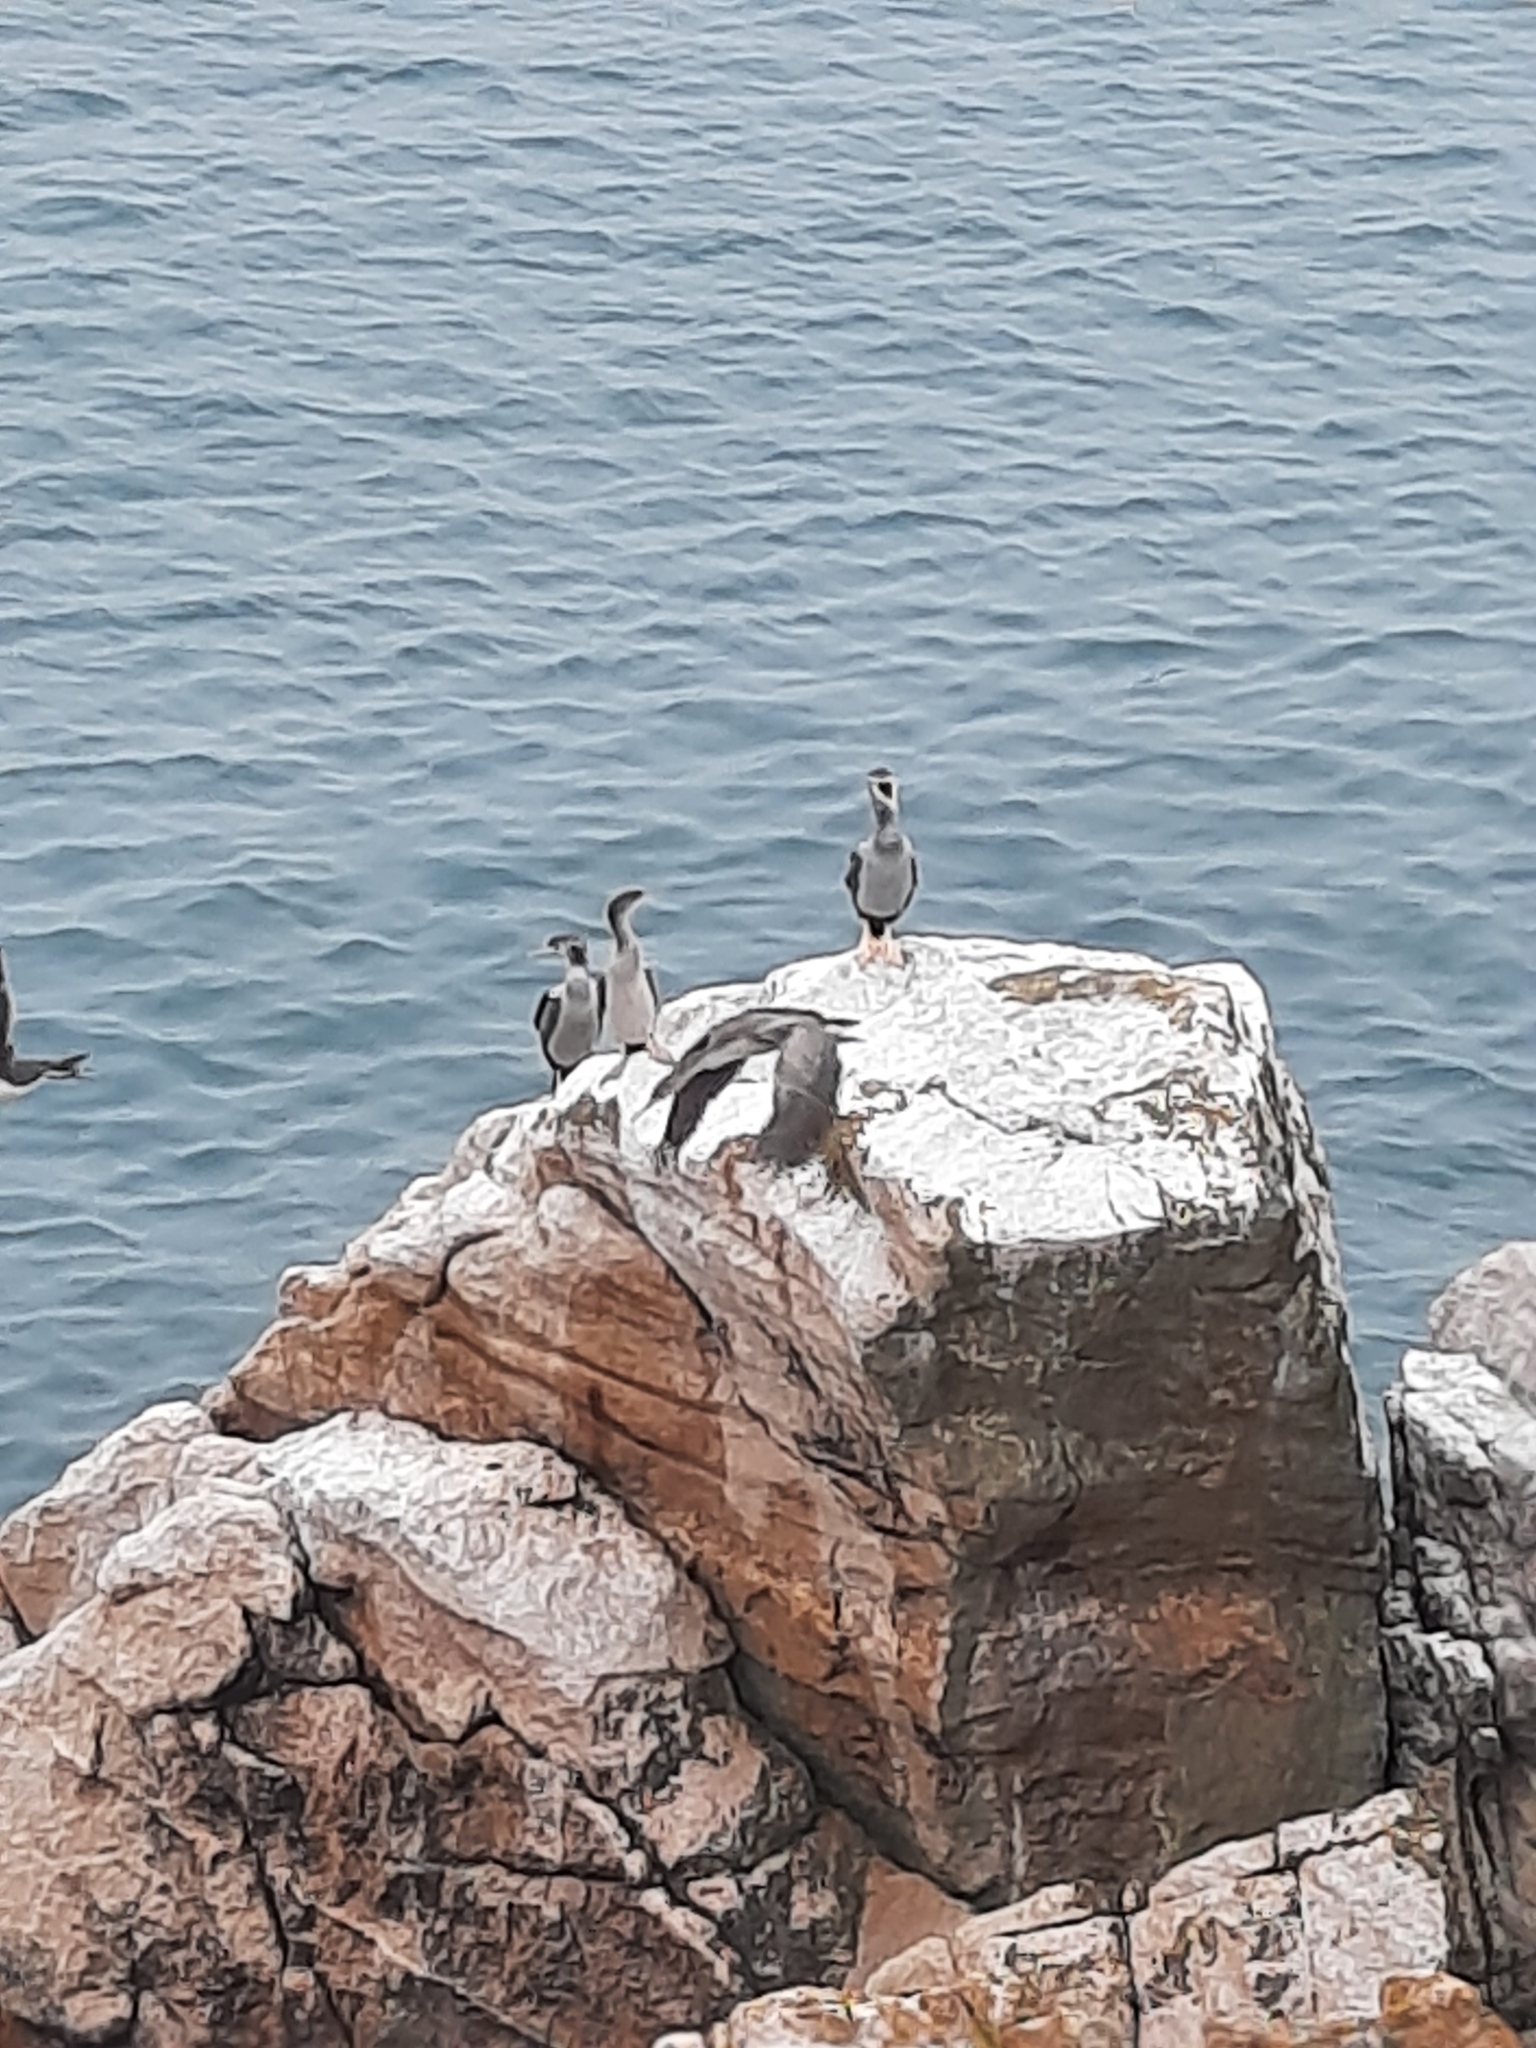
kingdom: Animalia
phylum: Chordata
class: Aves
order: Suliformes
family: Phalacrocoracidae
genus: Phalacrocorax
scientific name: Phalacrocorax punctatus
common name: Spotted shag
